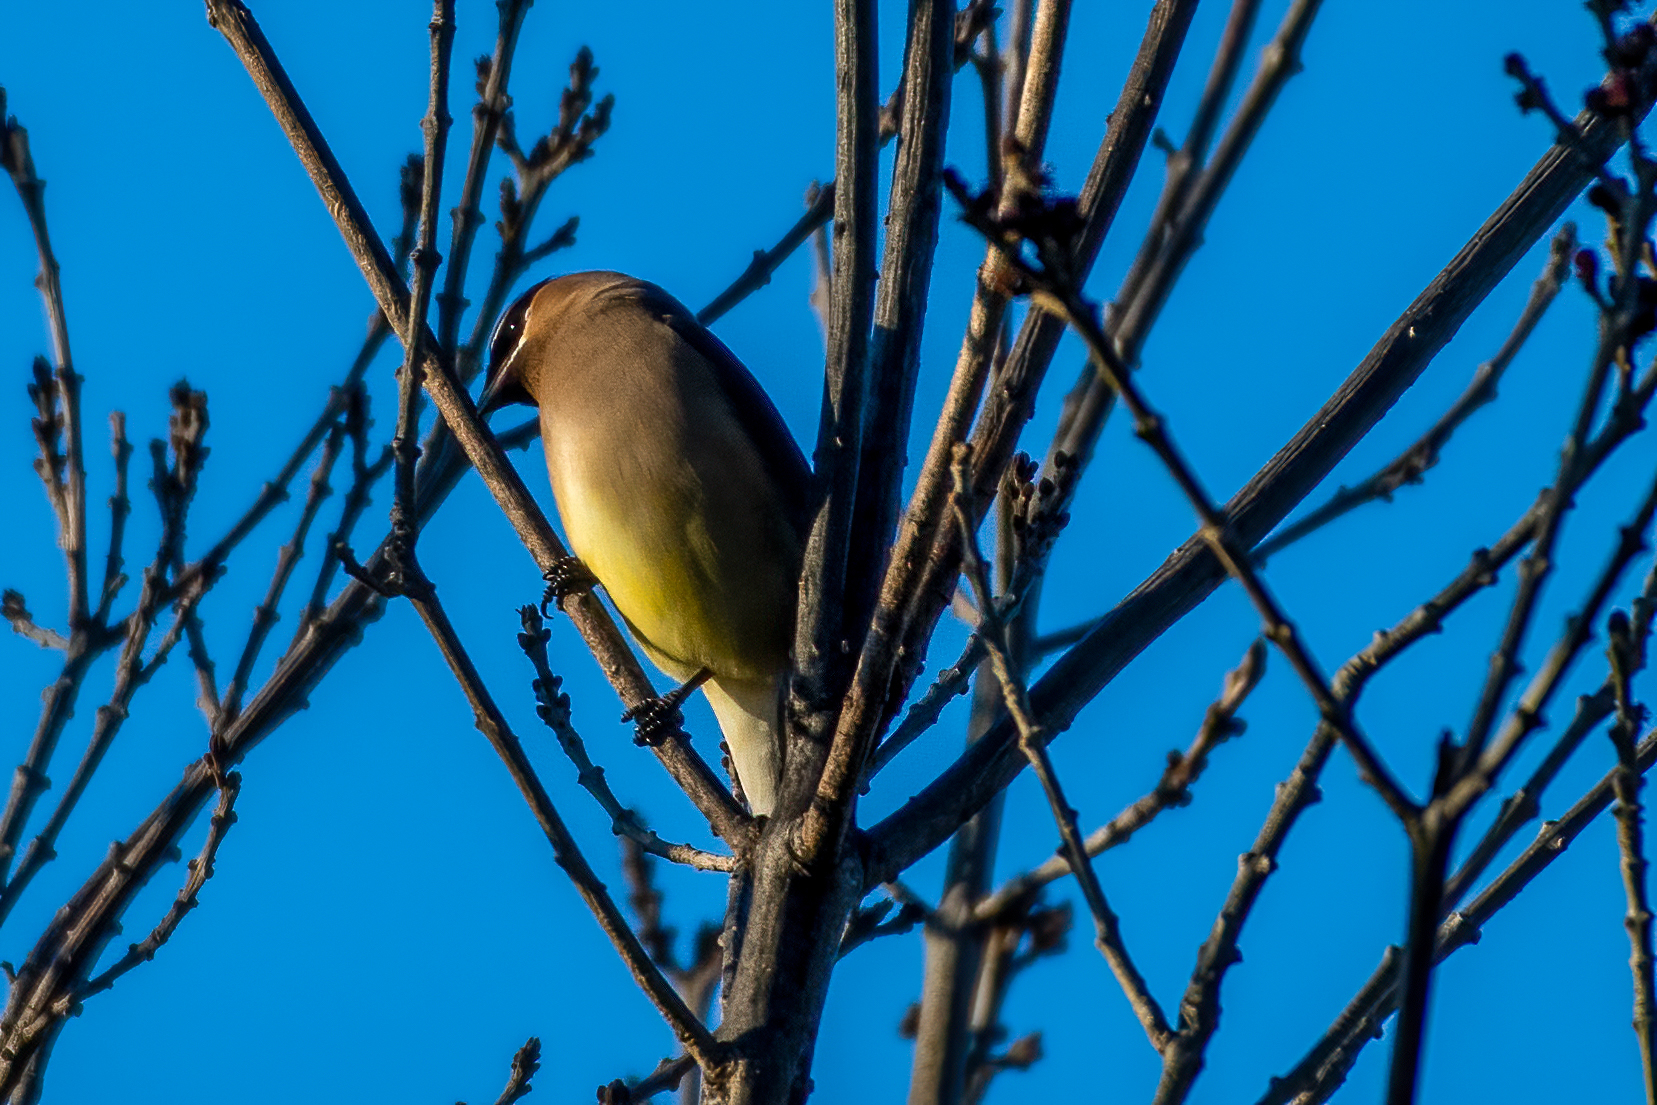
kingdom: Animalia
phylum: Chordata
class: Aves
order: Passeriformes
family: Bombycillidae
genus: Bombycilla
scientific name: Bombycilla cedrorum
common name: Cedar waxwing
